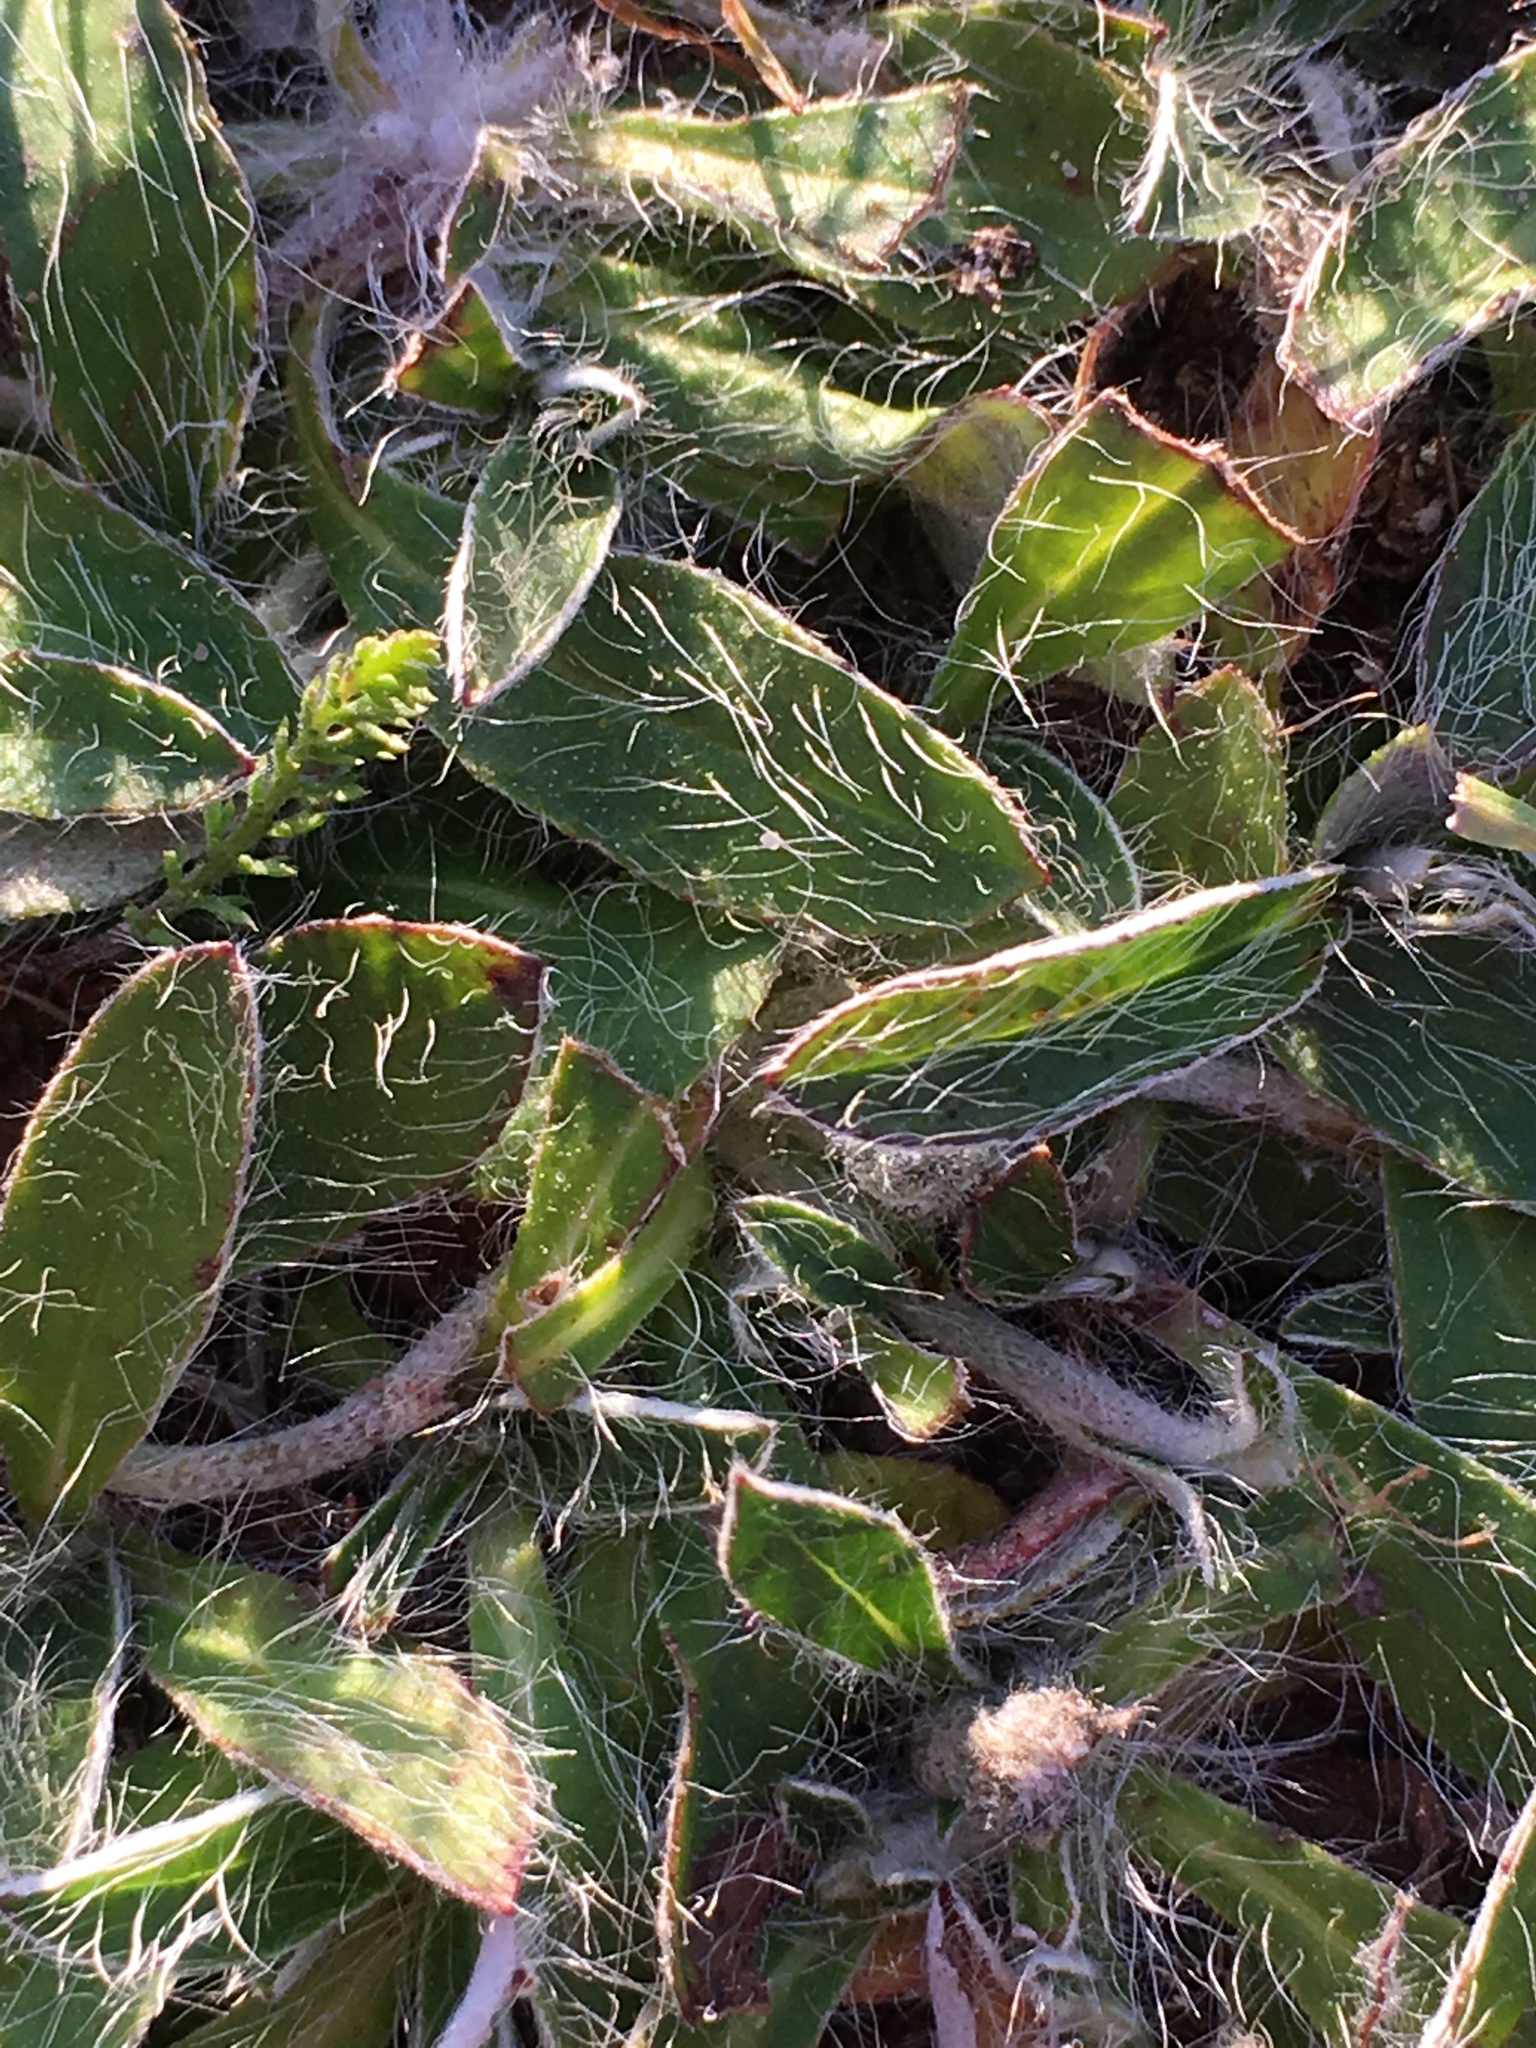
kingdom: Plantae
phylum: Tracheophyta
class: Magnoliopsida
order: Asterales
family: Asteraceae
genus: Pilosella
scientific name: Pilosella officinarum
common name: Mouse-ear hawkweed
